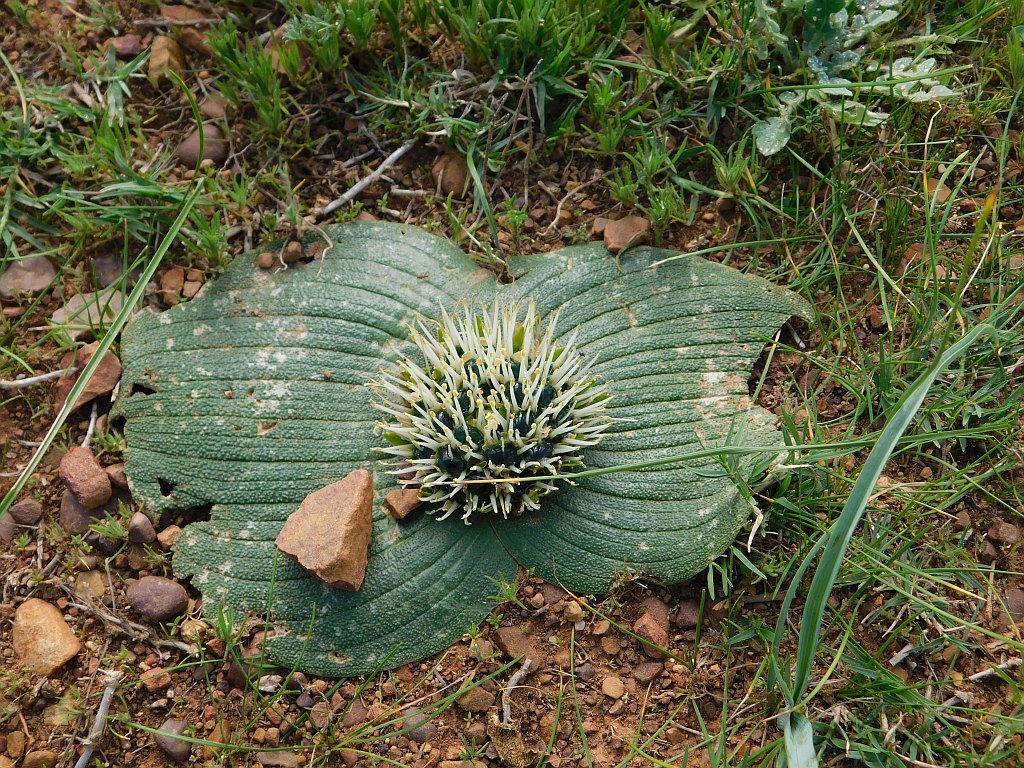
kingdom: Plantae
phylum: Tracheophyta
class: Liliopsida
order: Asparagales
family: Asparagaceae
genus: Massonia
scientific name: Massonia pustulata
